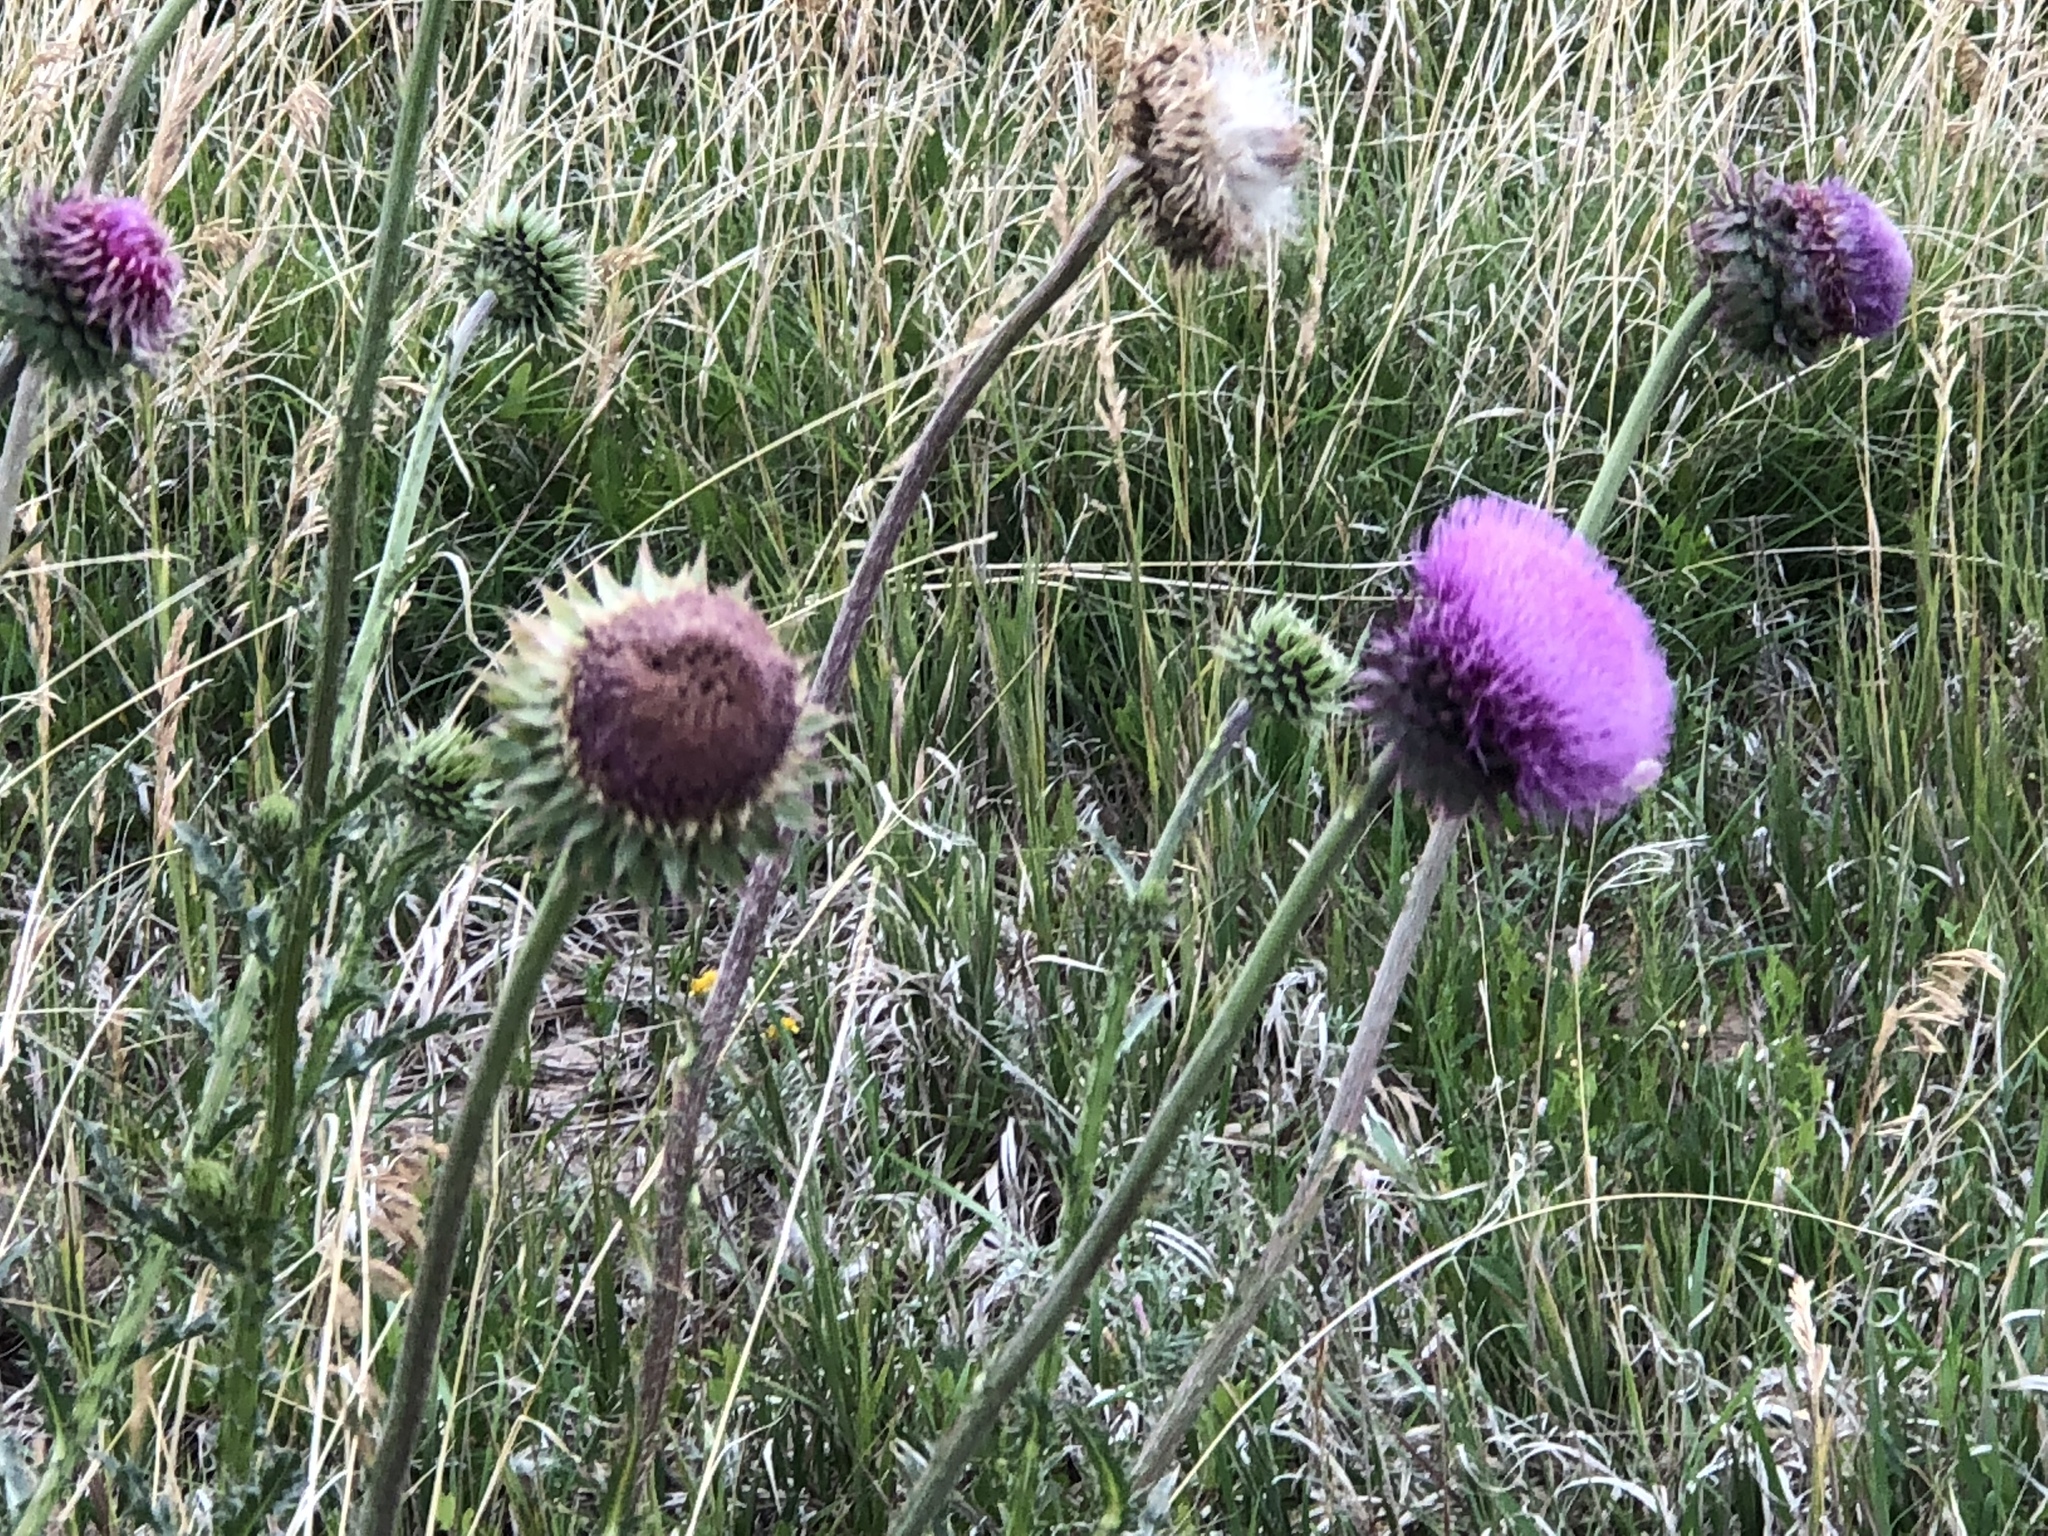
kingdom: Plantae
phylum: Tracheophyta
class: Magnoliopsida
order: Asterales
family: Asteraceae
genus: Carduus
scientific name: Carduus nutans
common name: Musk thistle
